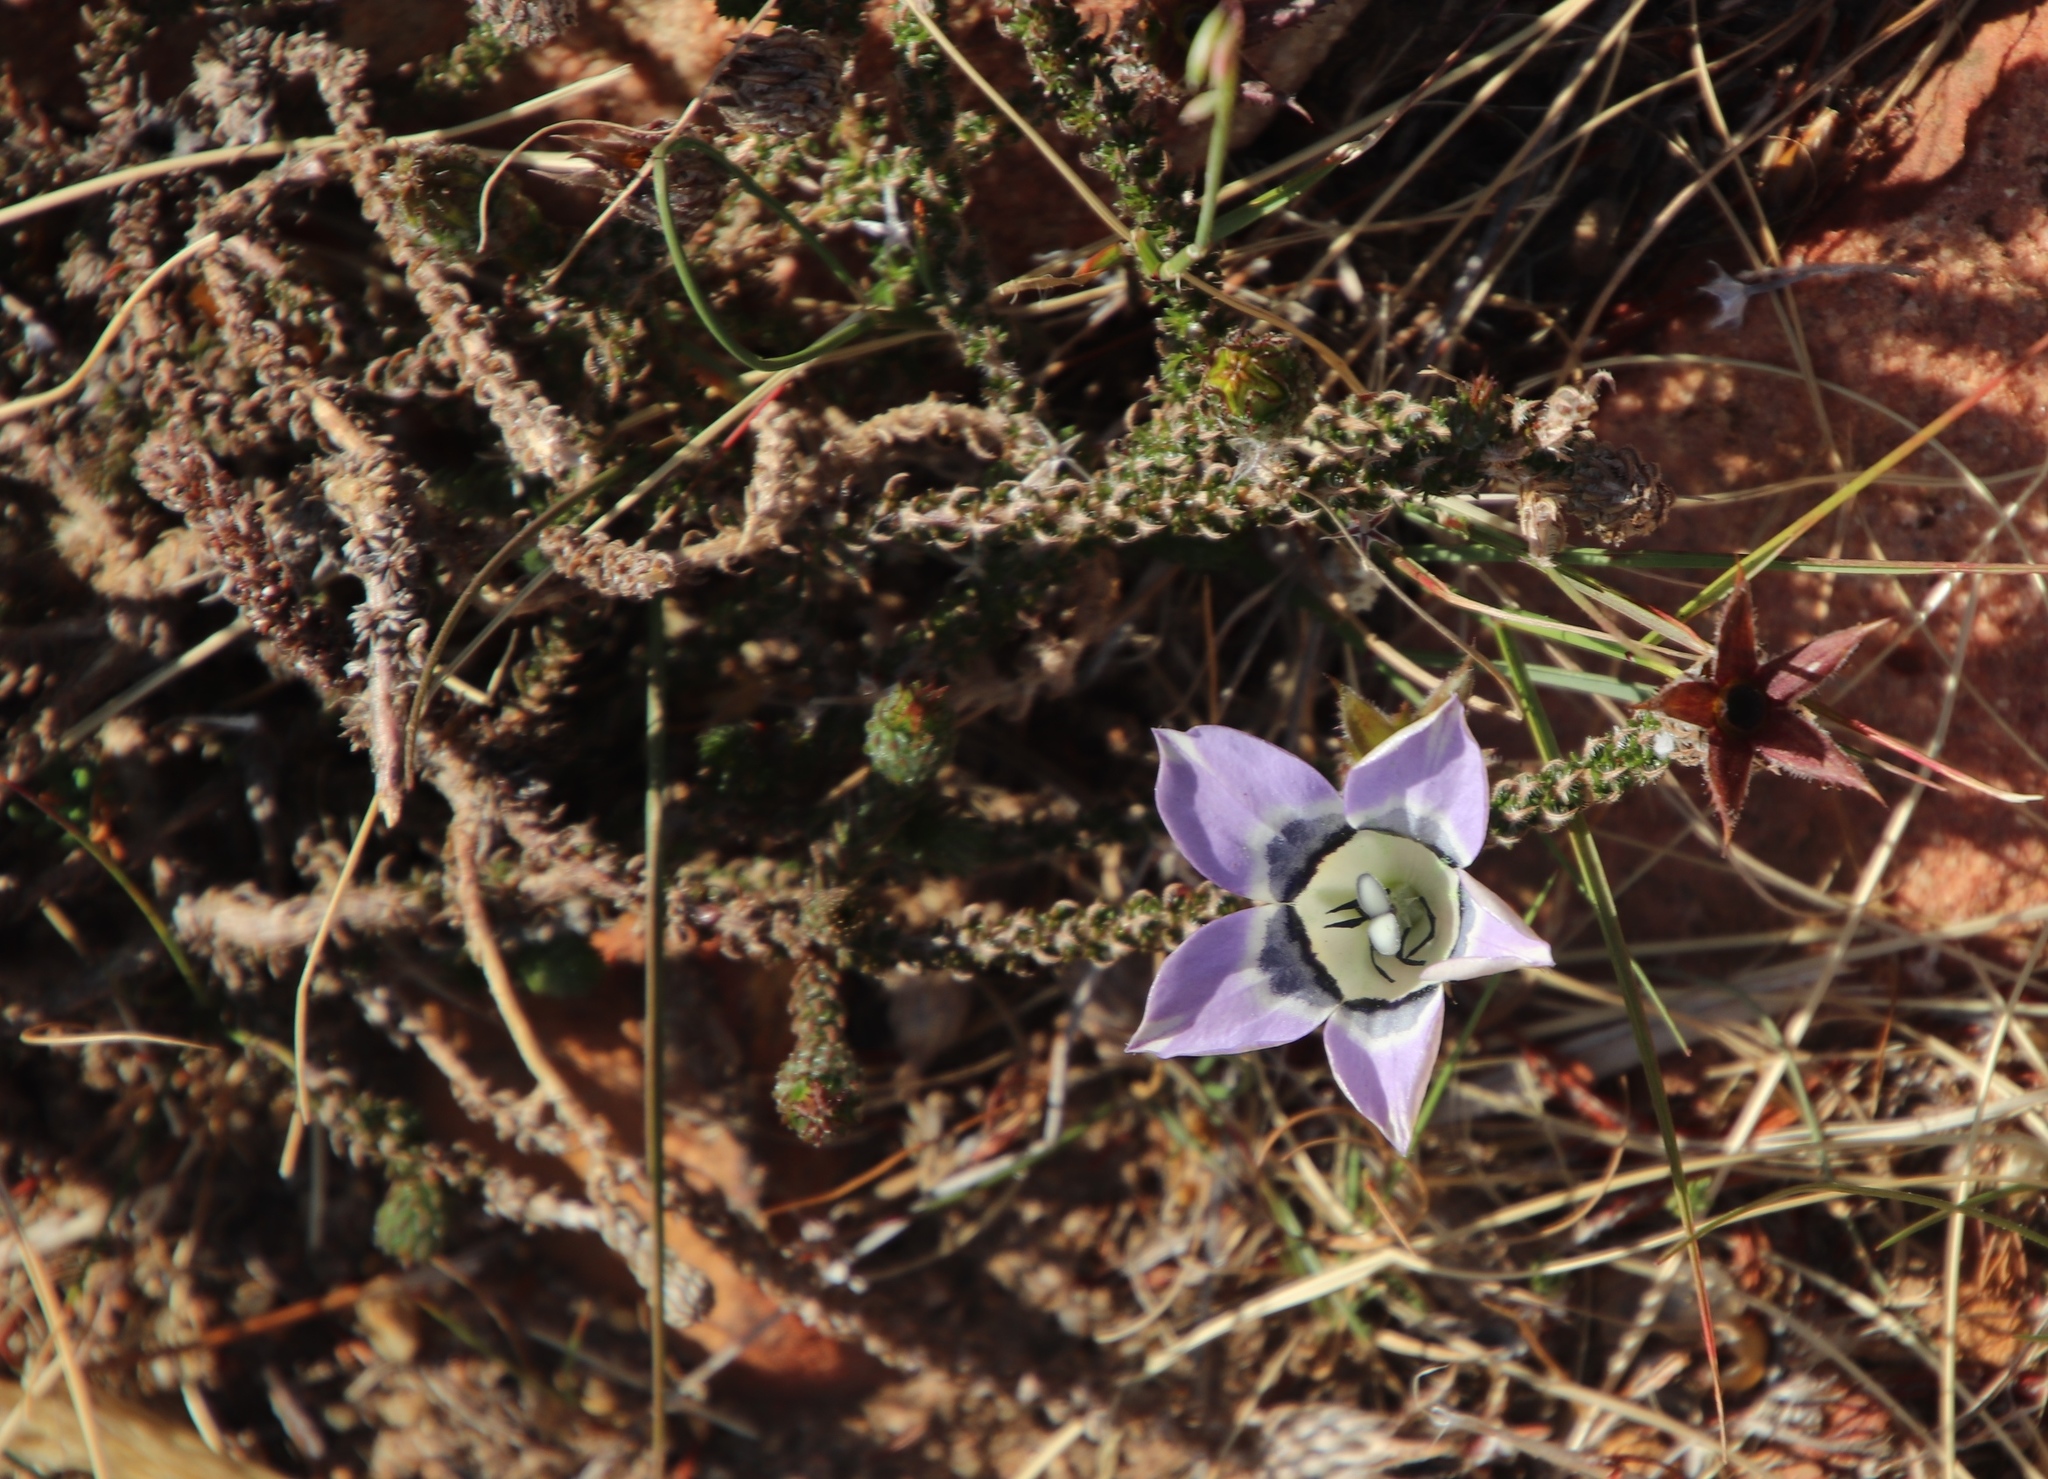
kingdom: Plantae
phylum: Tracheophyta
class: Magnoliopsida
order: Asterales
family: Campanulaceae
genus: Roella
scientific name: Roella ciliata
